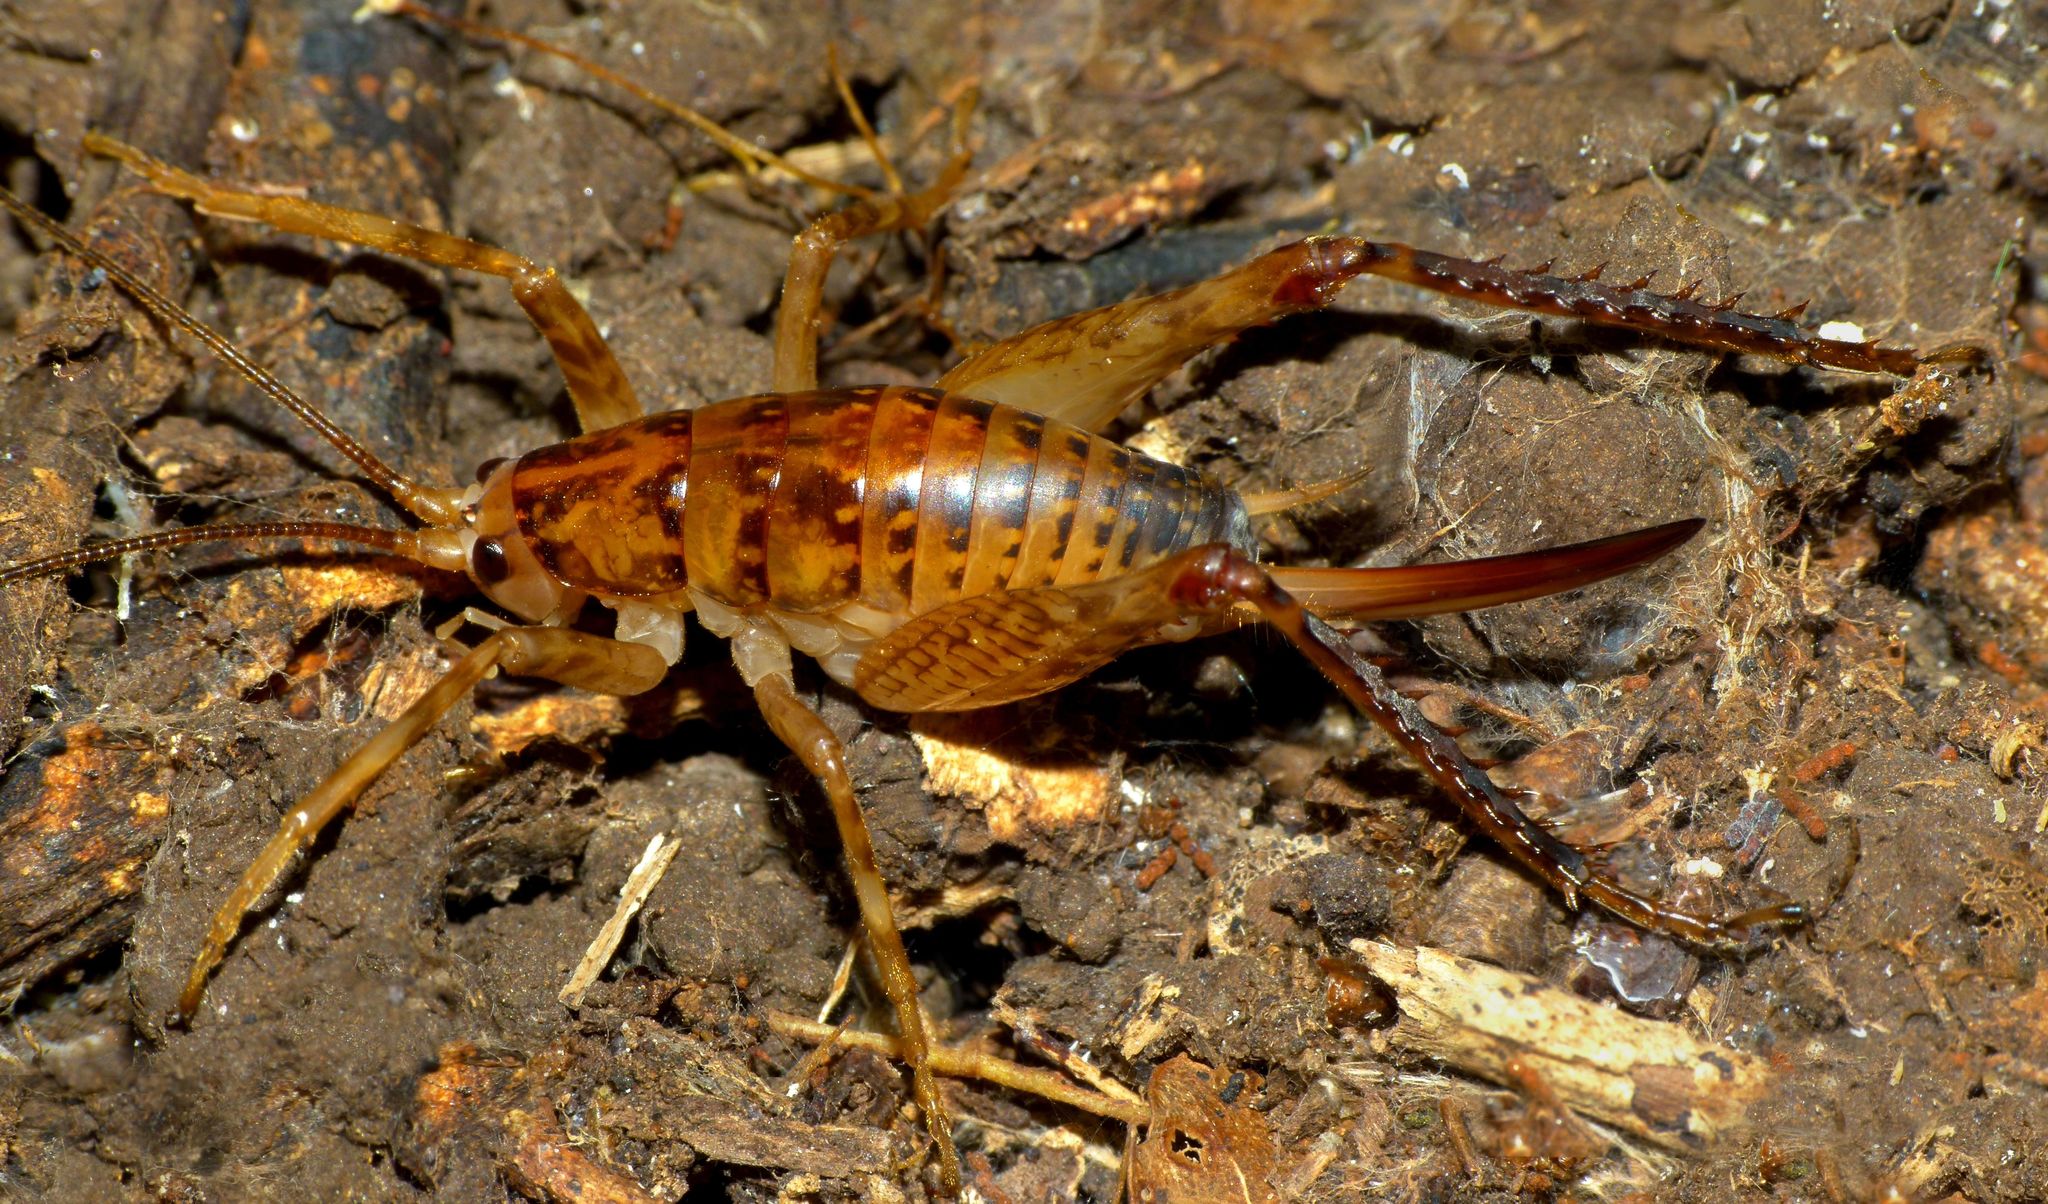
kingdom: Animalia
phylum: Arthropoda
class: Insecta
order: Orthoptera
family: Rhaphidophoridae
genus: Talitropsis
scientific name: Talitropsis sedilloti
